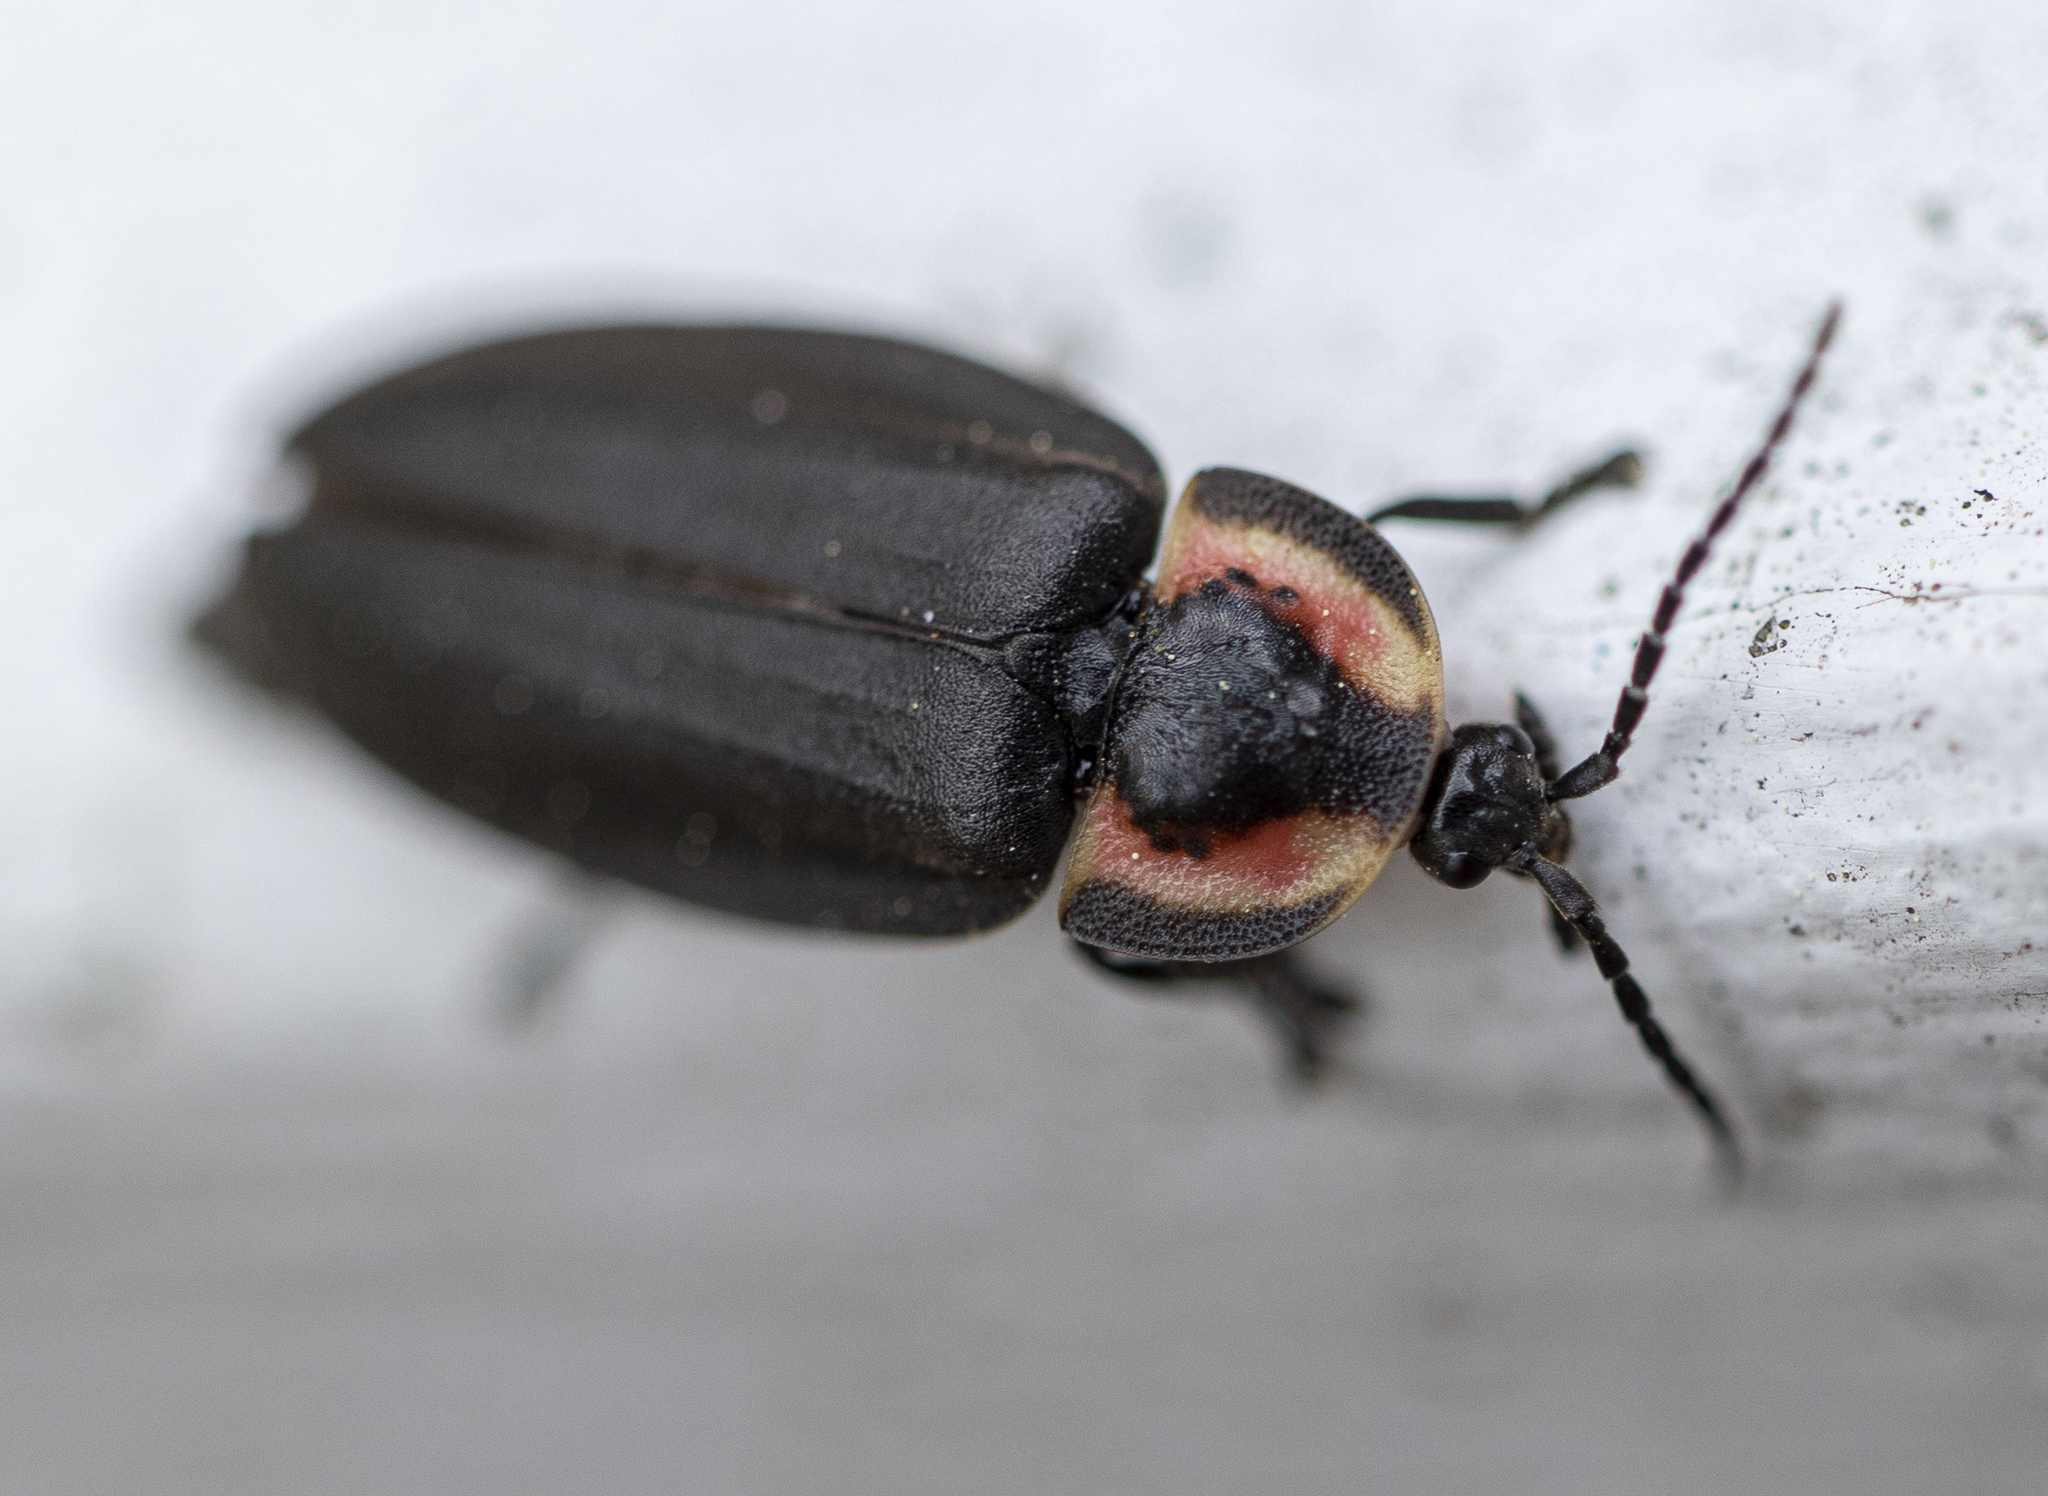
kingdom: Animalia
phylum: Arthropoda
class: Insecta
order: Coleoptera
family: Lampyridae
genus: Photinus
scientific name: Photinus corrusca
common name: Winter firefly
